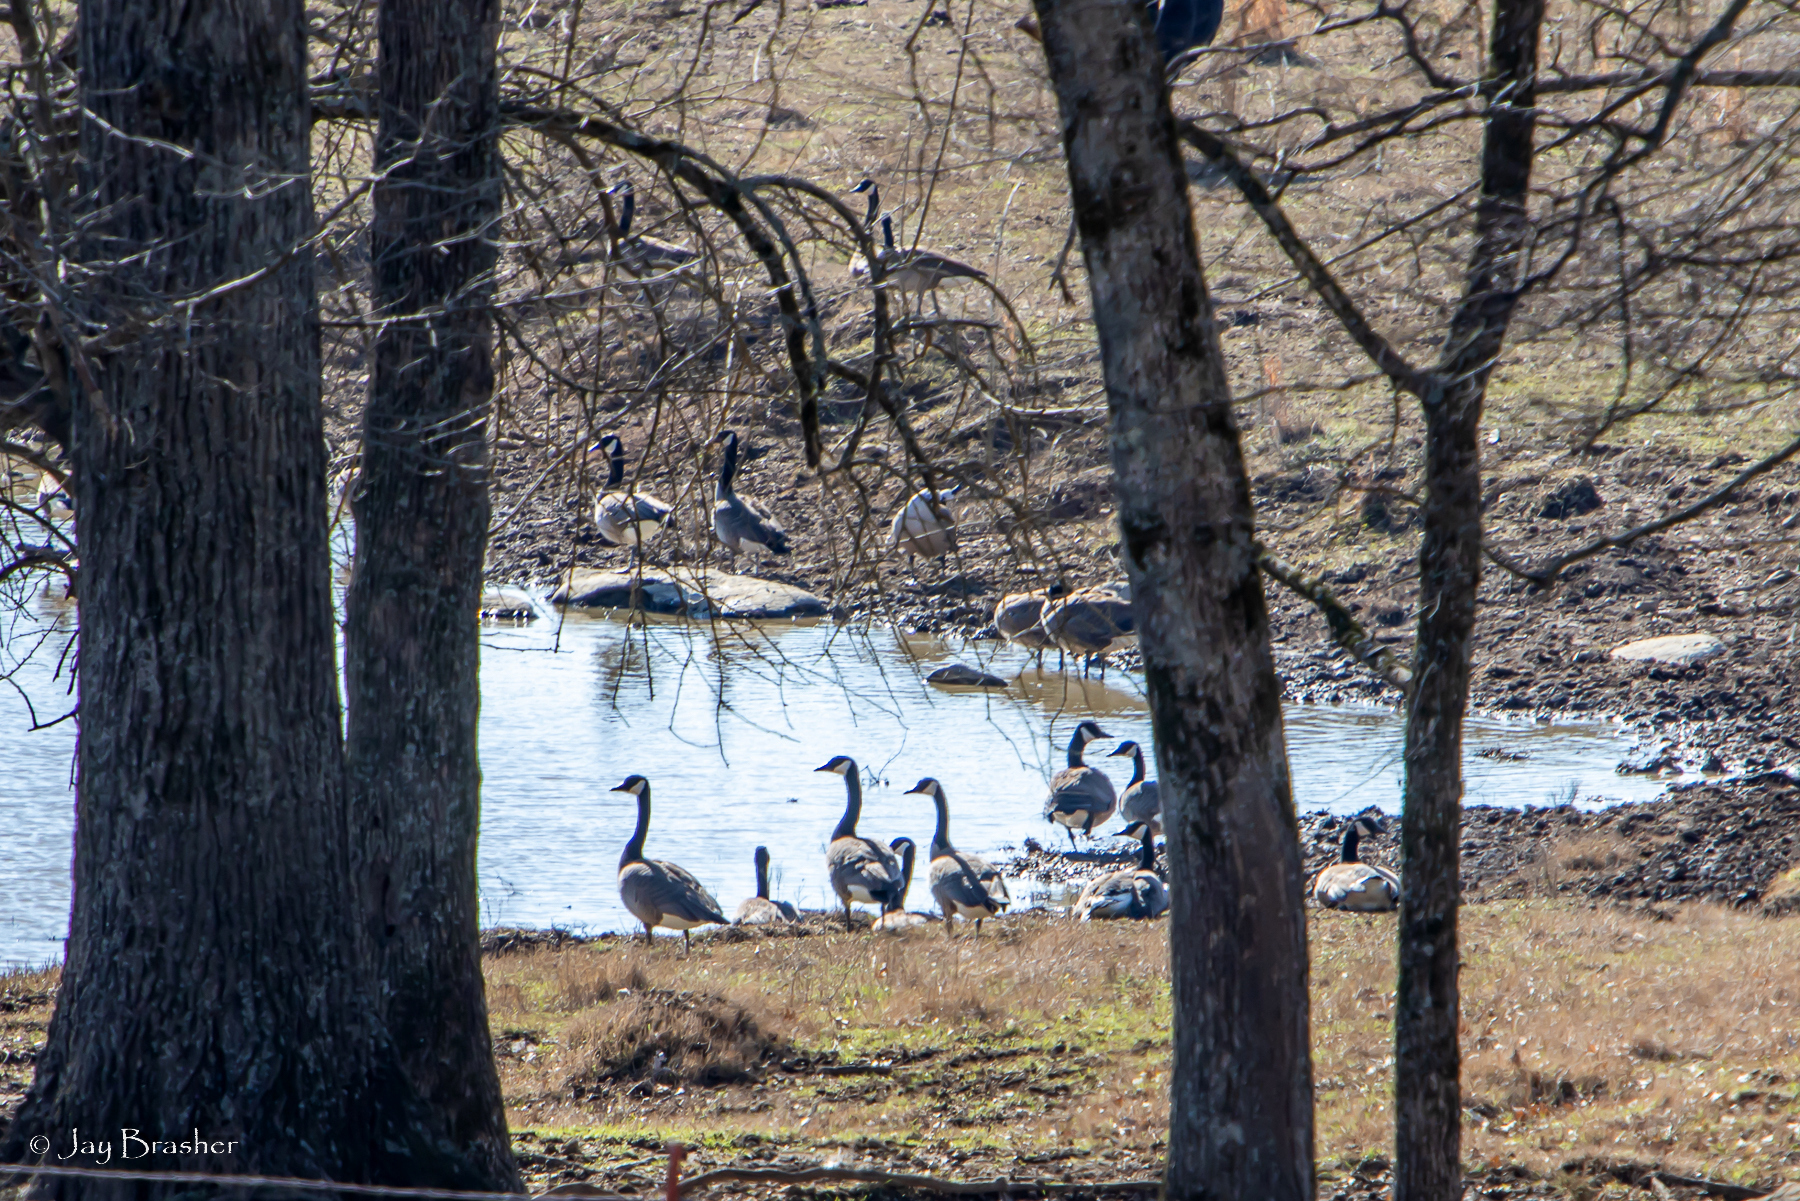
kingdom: Animalia
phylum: Chordata
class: Aves
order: Anseriformes
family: Anatidae
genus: Branta
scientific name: Branta canadensis
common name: Canada goose
